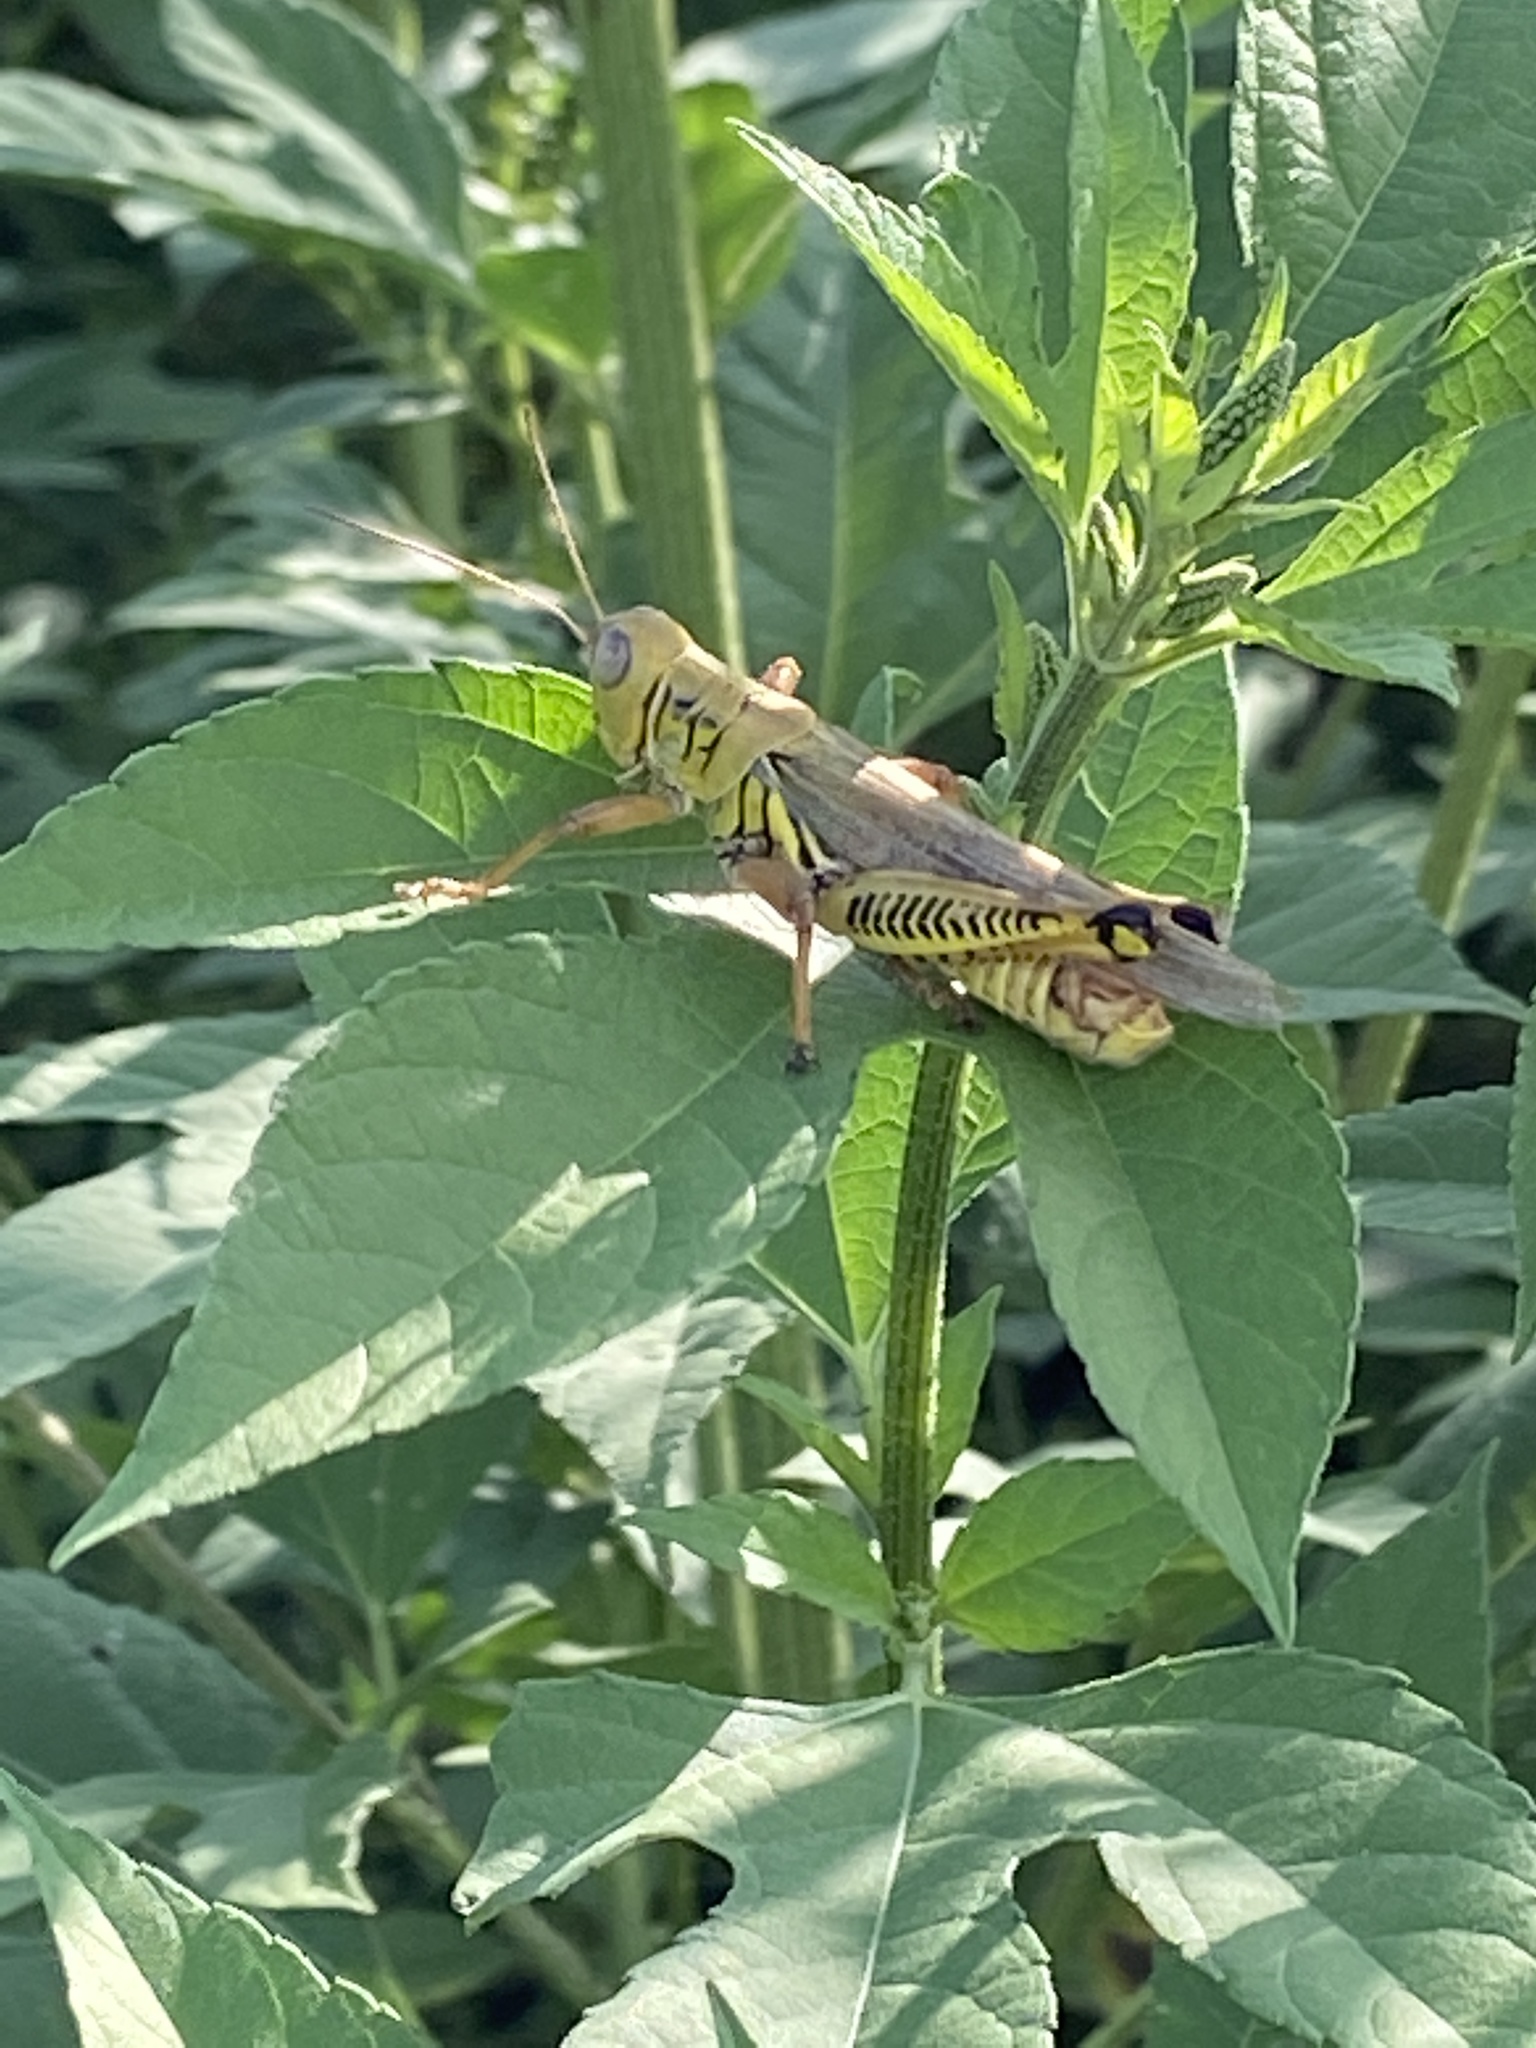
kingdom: Animalia
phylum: Arthropoda
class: Insecta
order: Orthoptera
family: Acrididae
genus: Melanoplus
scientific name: Melanoplus differentialis
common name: Differential grasshopper
